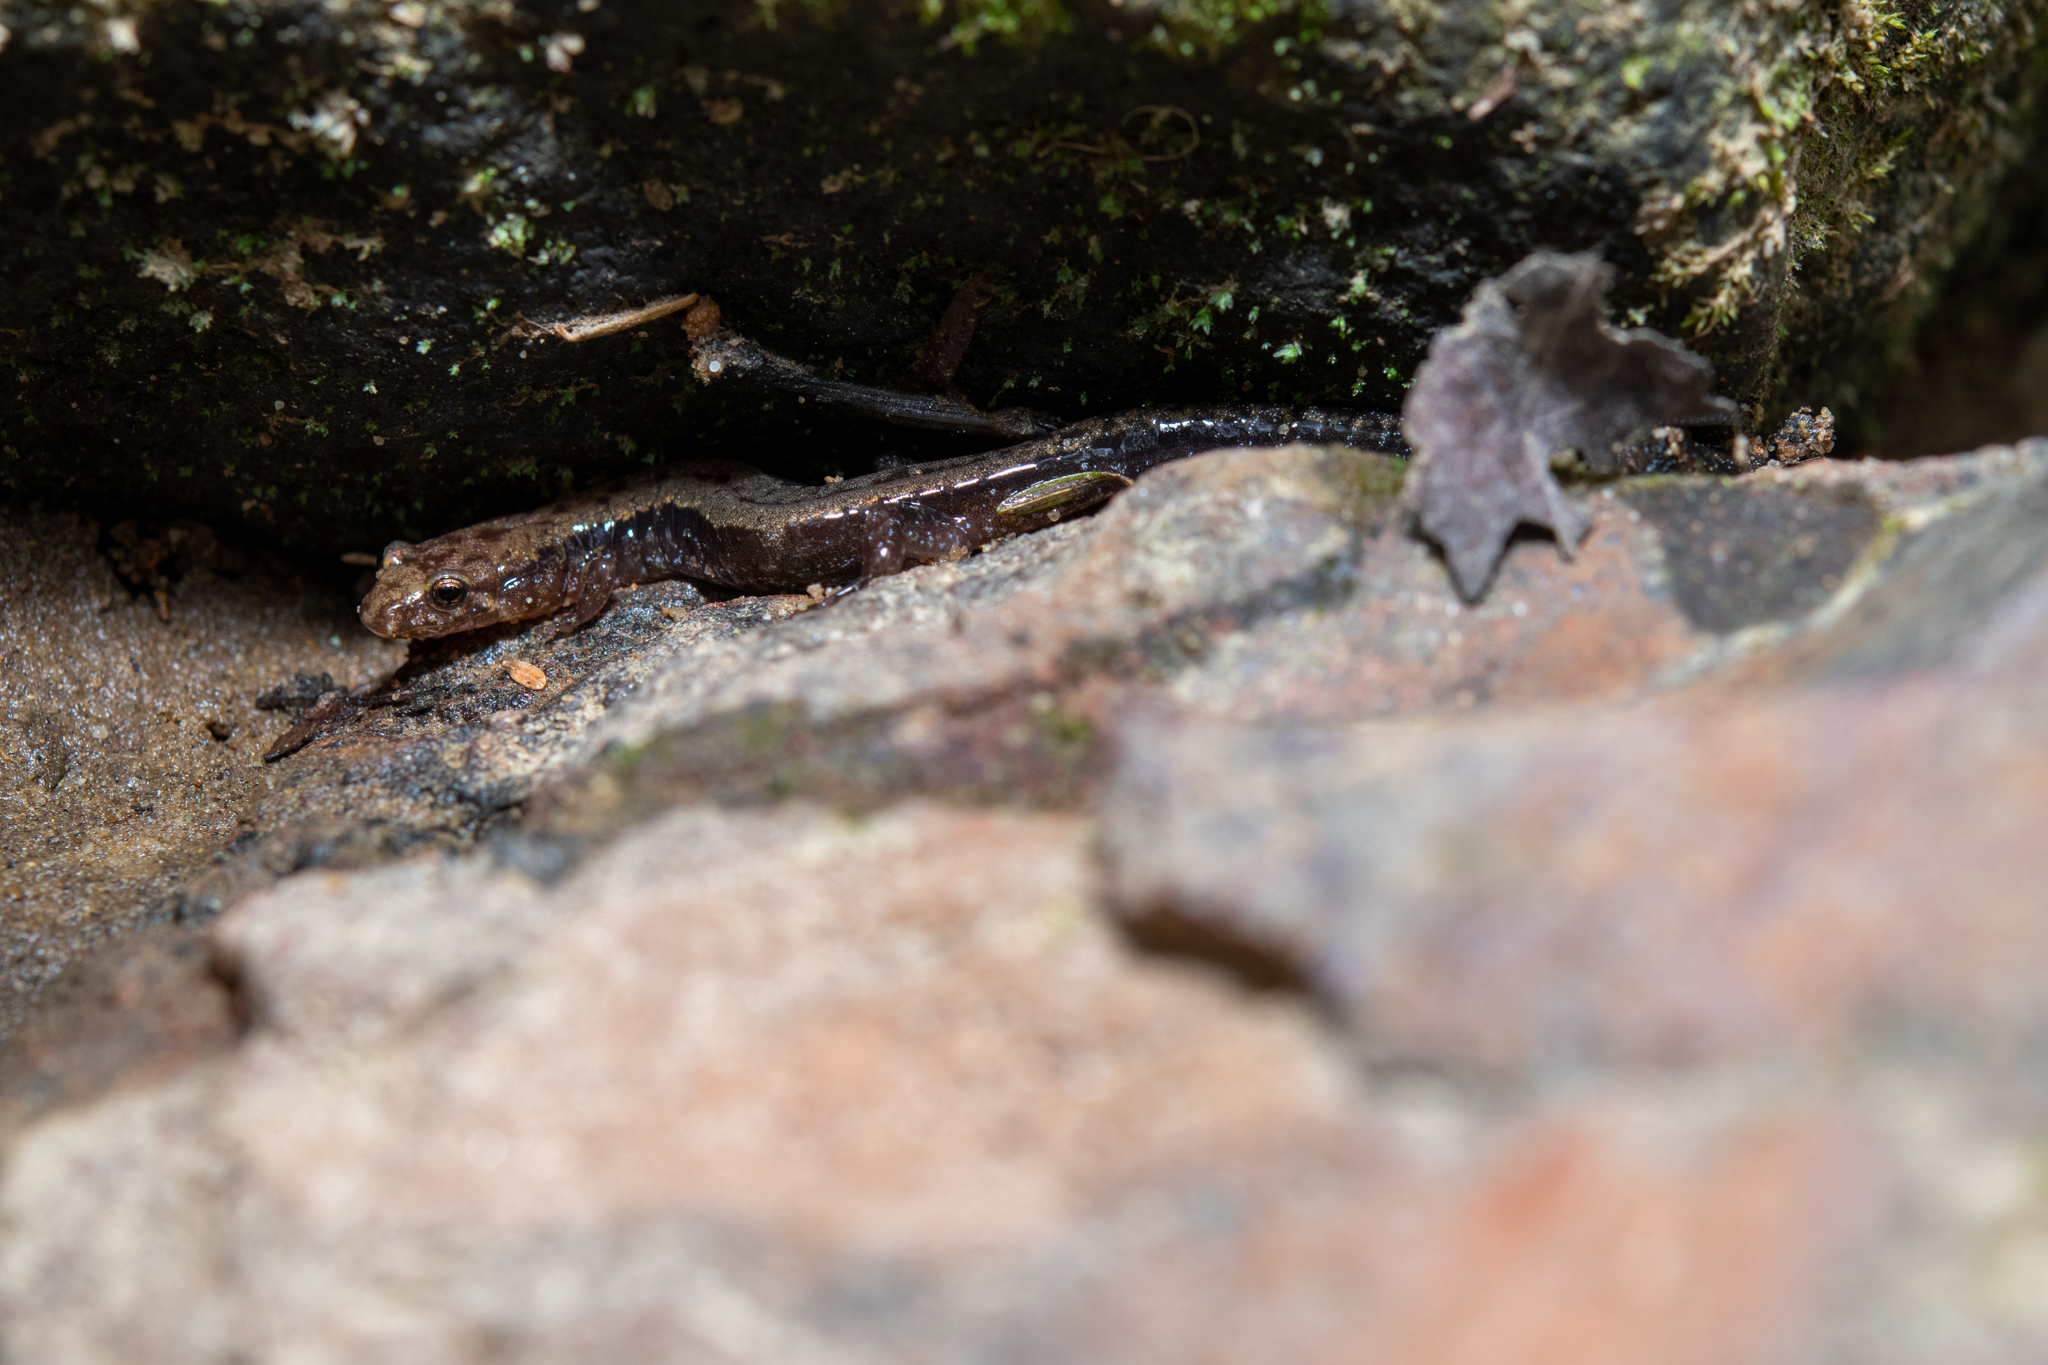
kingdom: Animalia
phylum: Chordata
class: Amphibia
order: Caudata
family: Plethodontidae
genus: Desmognathus
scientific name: Desmognathus ochrophaeus
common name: Allegheny mountain dusky salamander
